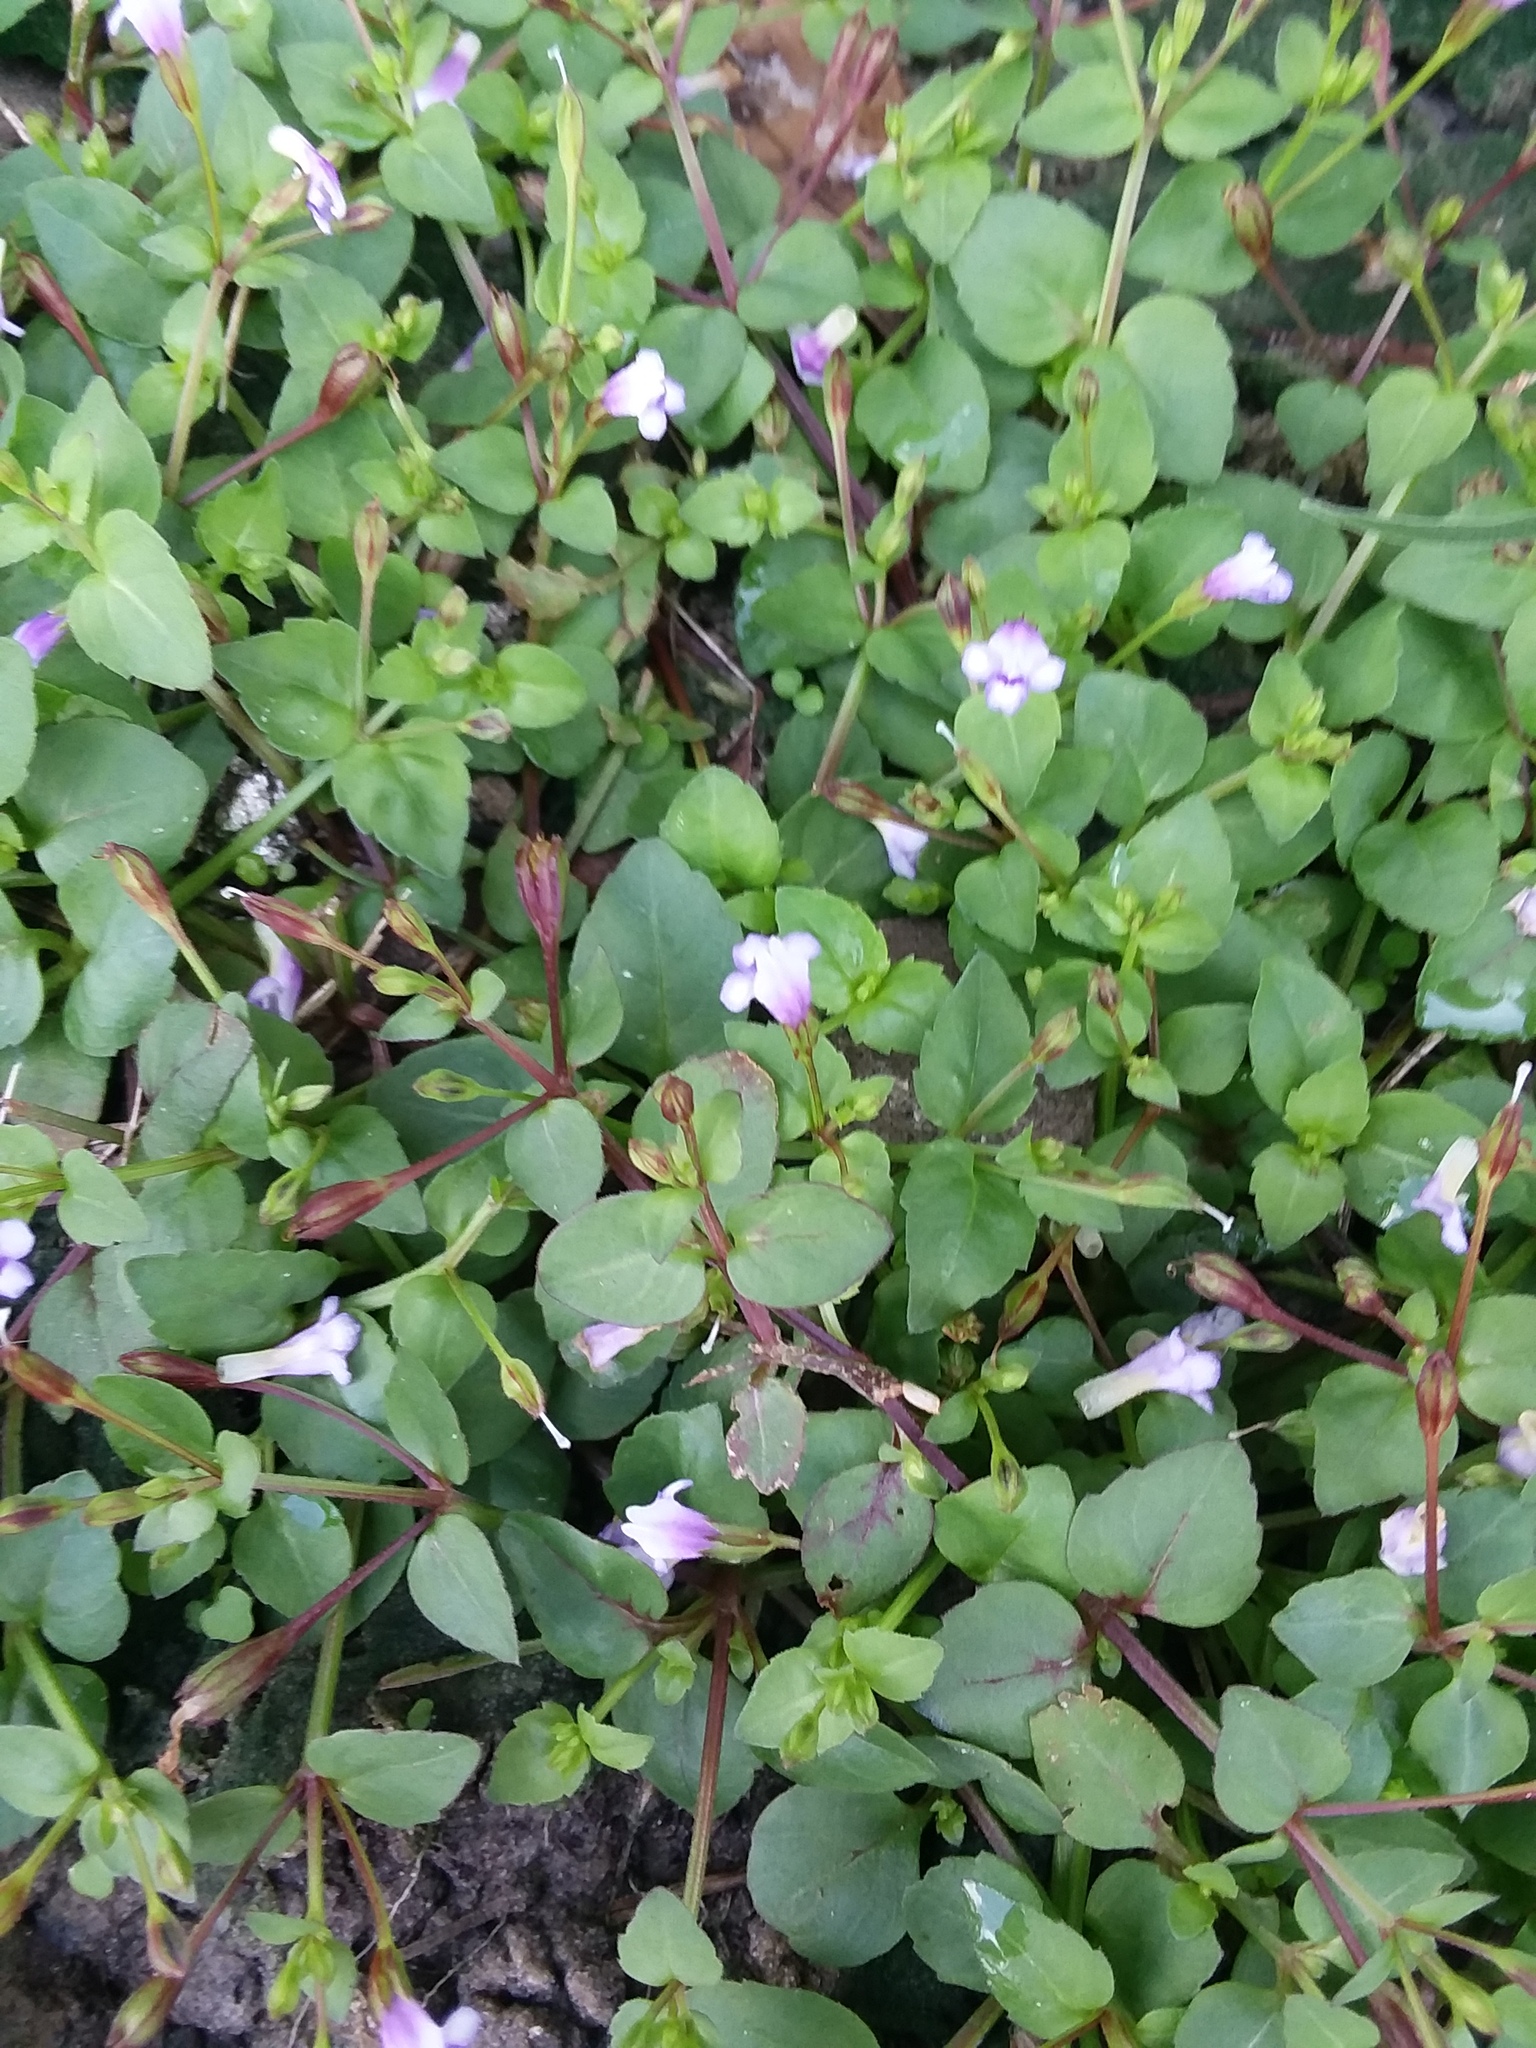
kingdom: Plantae
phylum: Tracheophyta
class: Magnoliopsida
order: Lamiales
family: Linderniaceae
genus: Torenia
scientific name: Torenia crustacea
